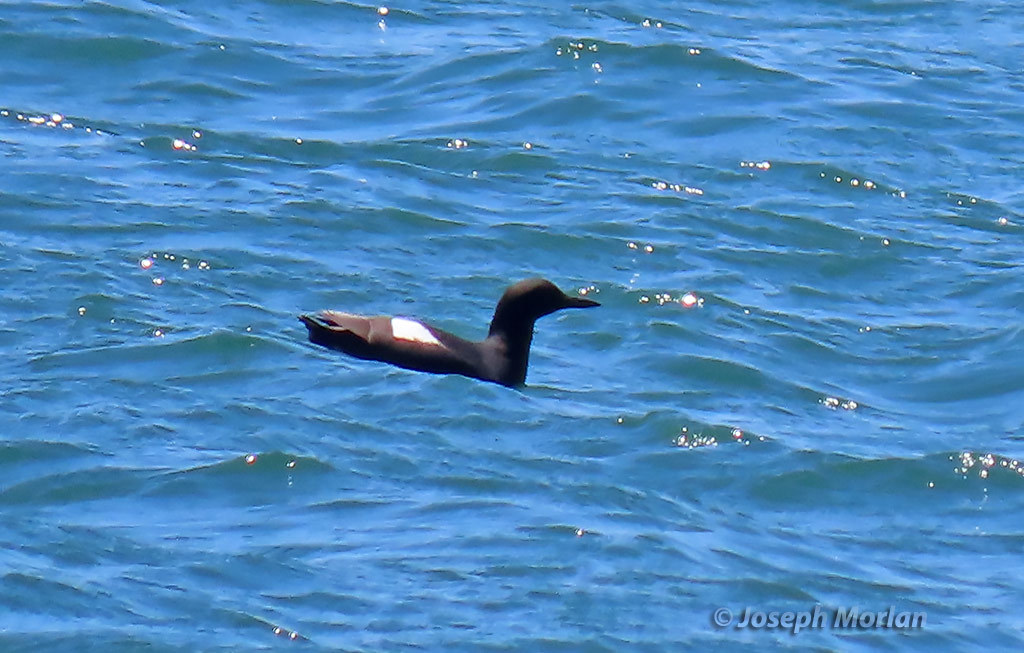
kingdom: Animalia
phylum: Chordata
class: Aves
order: Charadriiformes
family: Alcidae
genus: Cepphus
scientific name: Cepphus columba
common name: Pigeon guillemot
